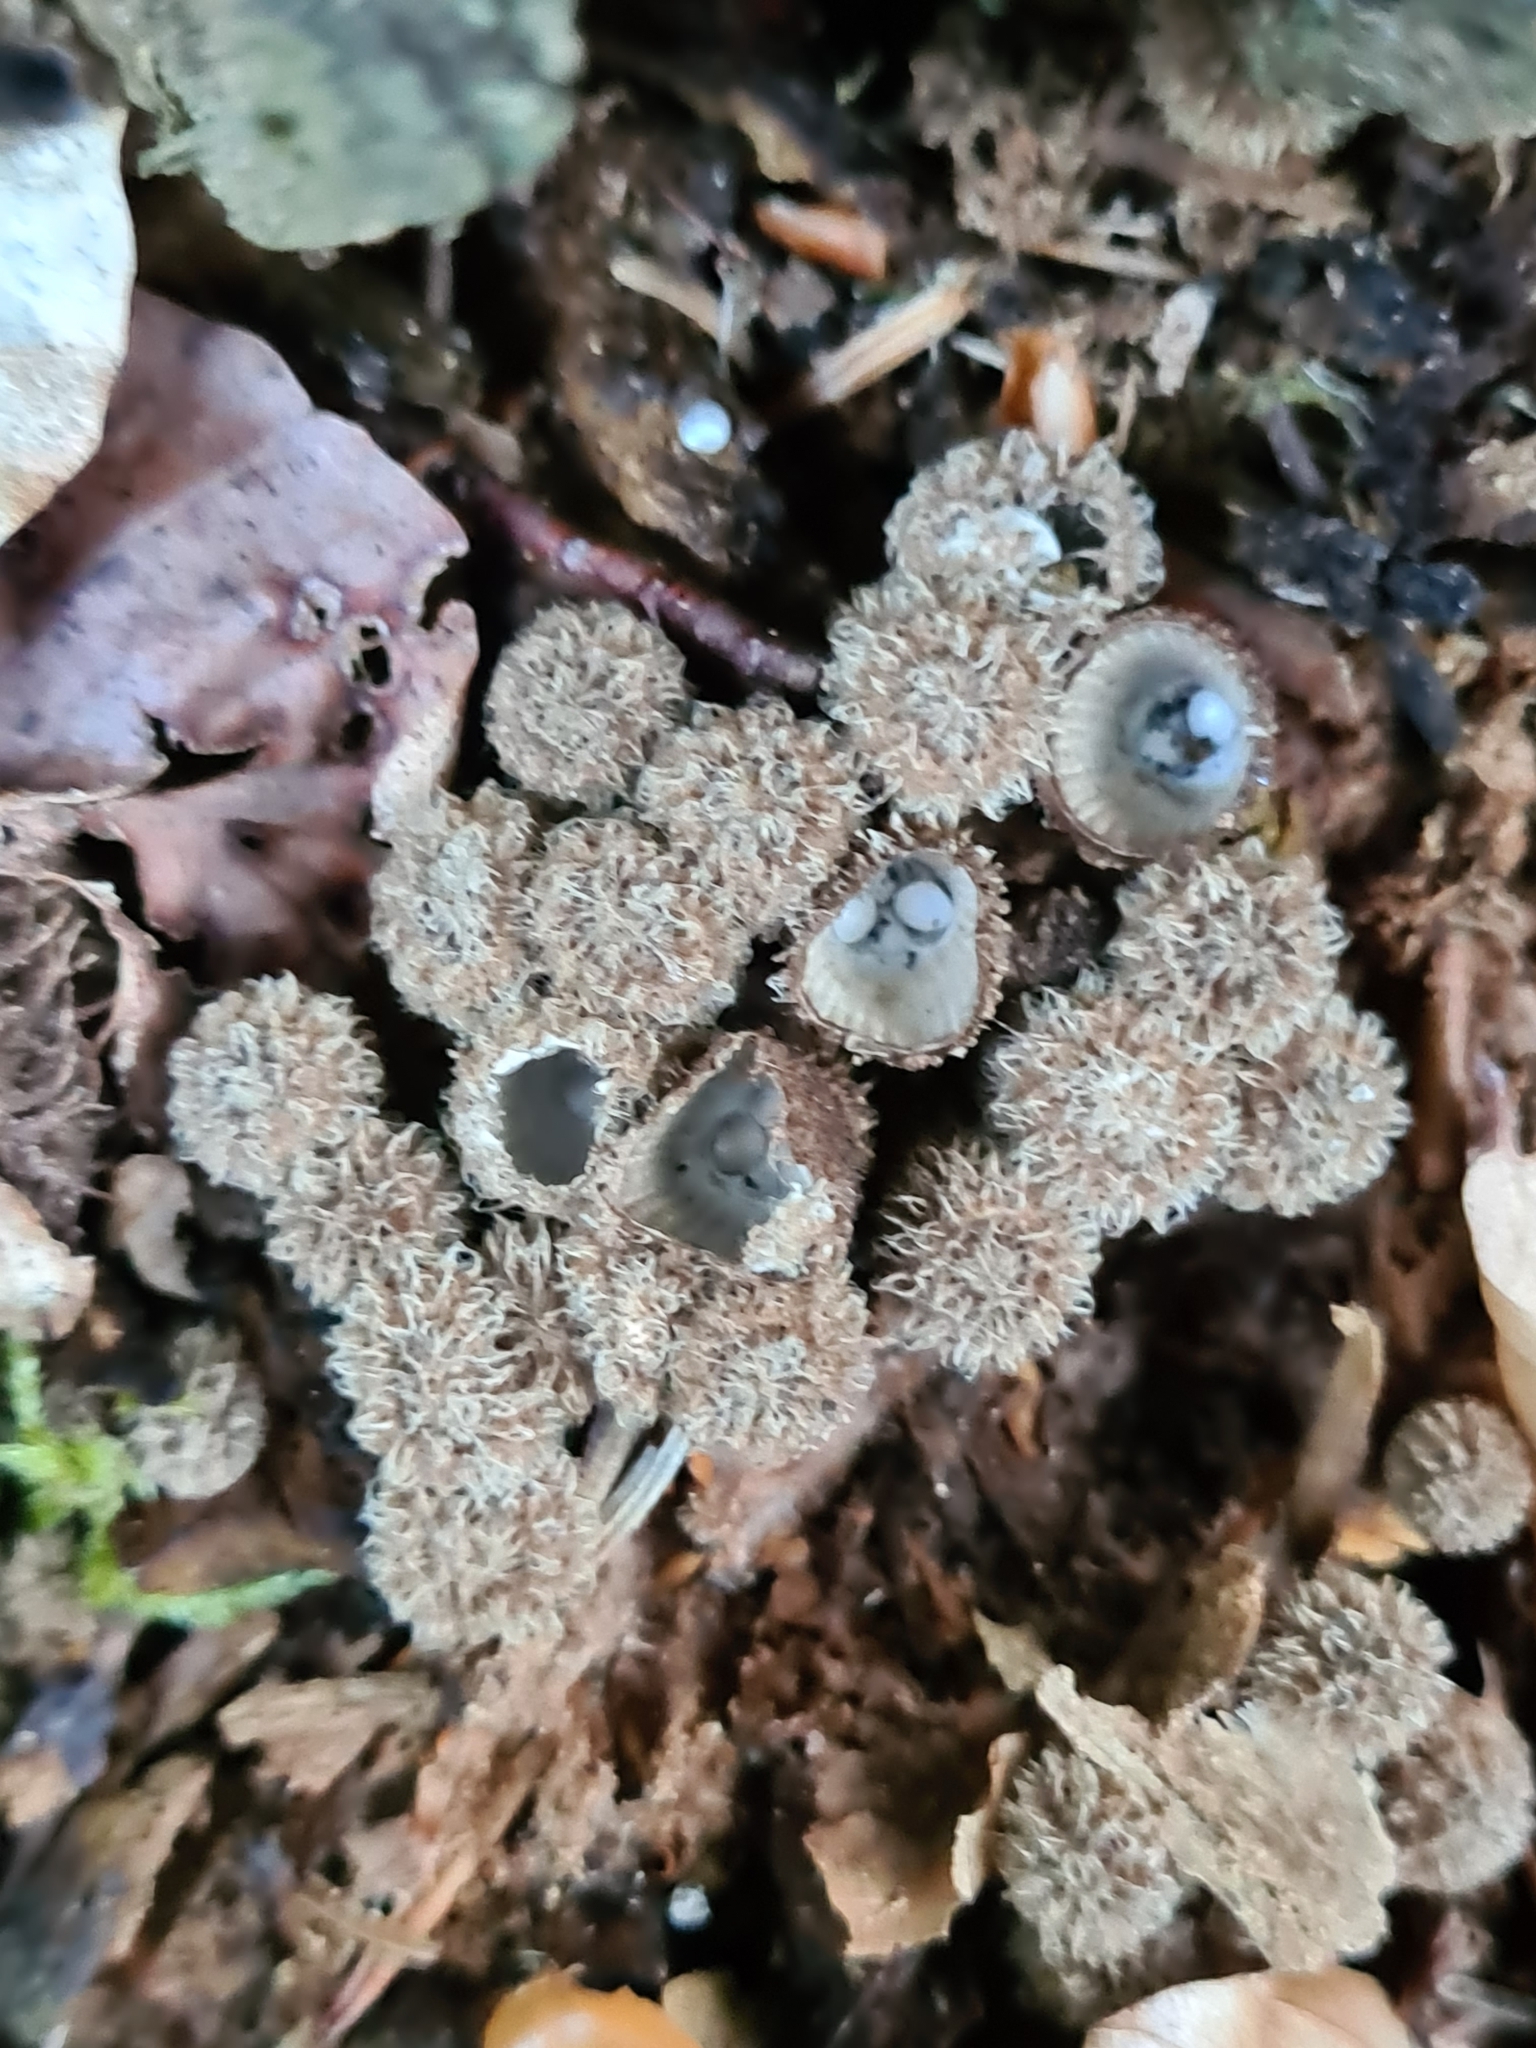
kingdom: Fungi
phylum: Basidiomycota
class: Agaricomycetes
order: Agaricales
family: Agaricaceae
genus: Cyathus
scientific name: Cyathus striatus
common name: Fluted bird's nest
